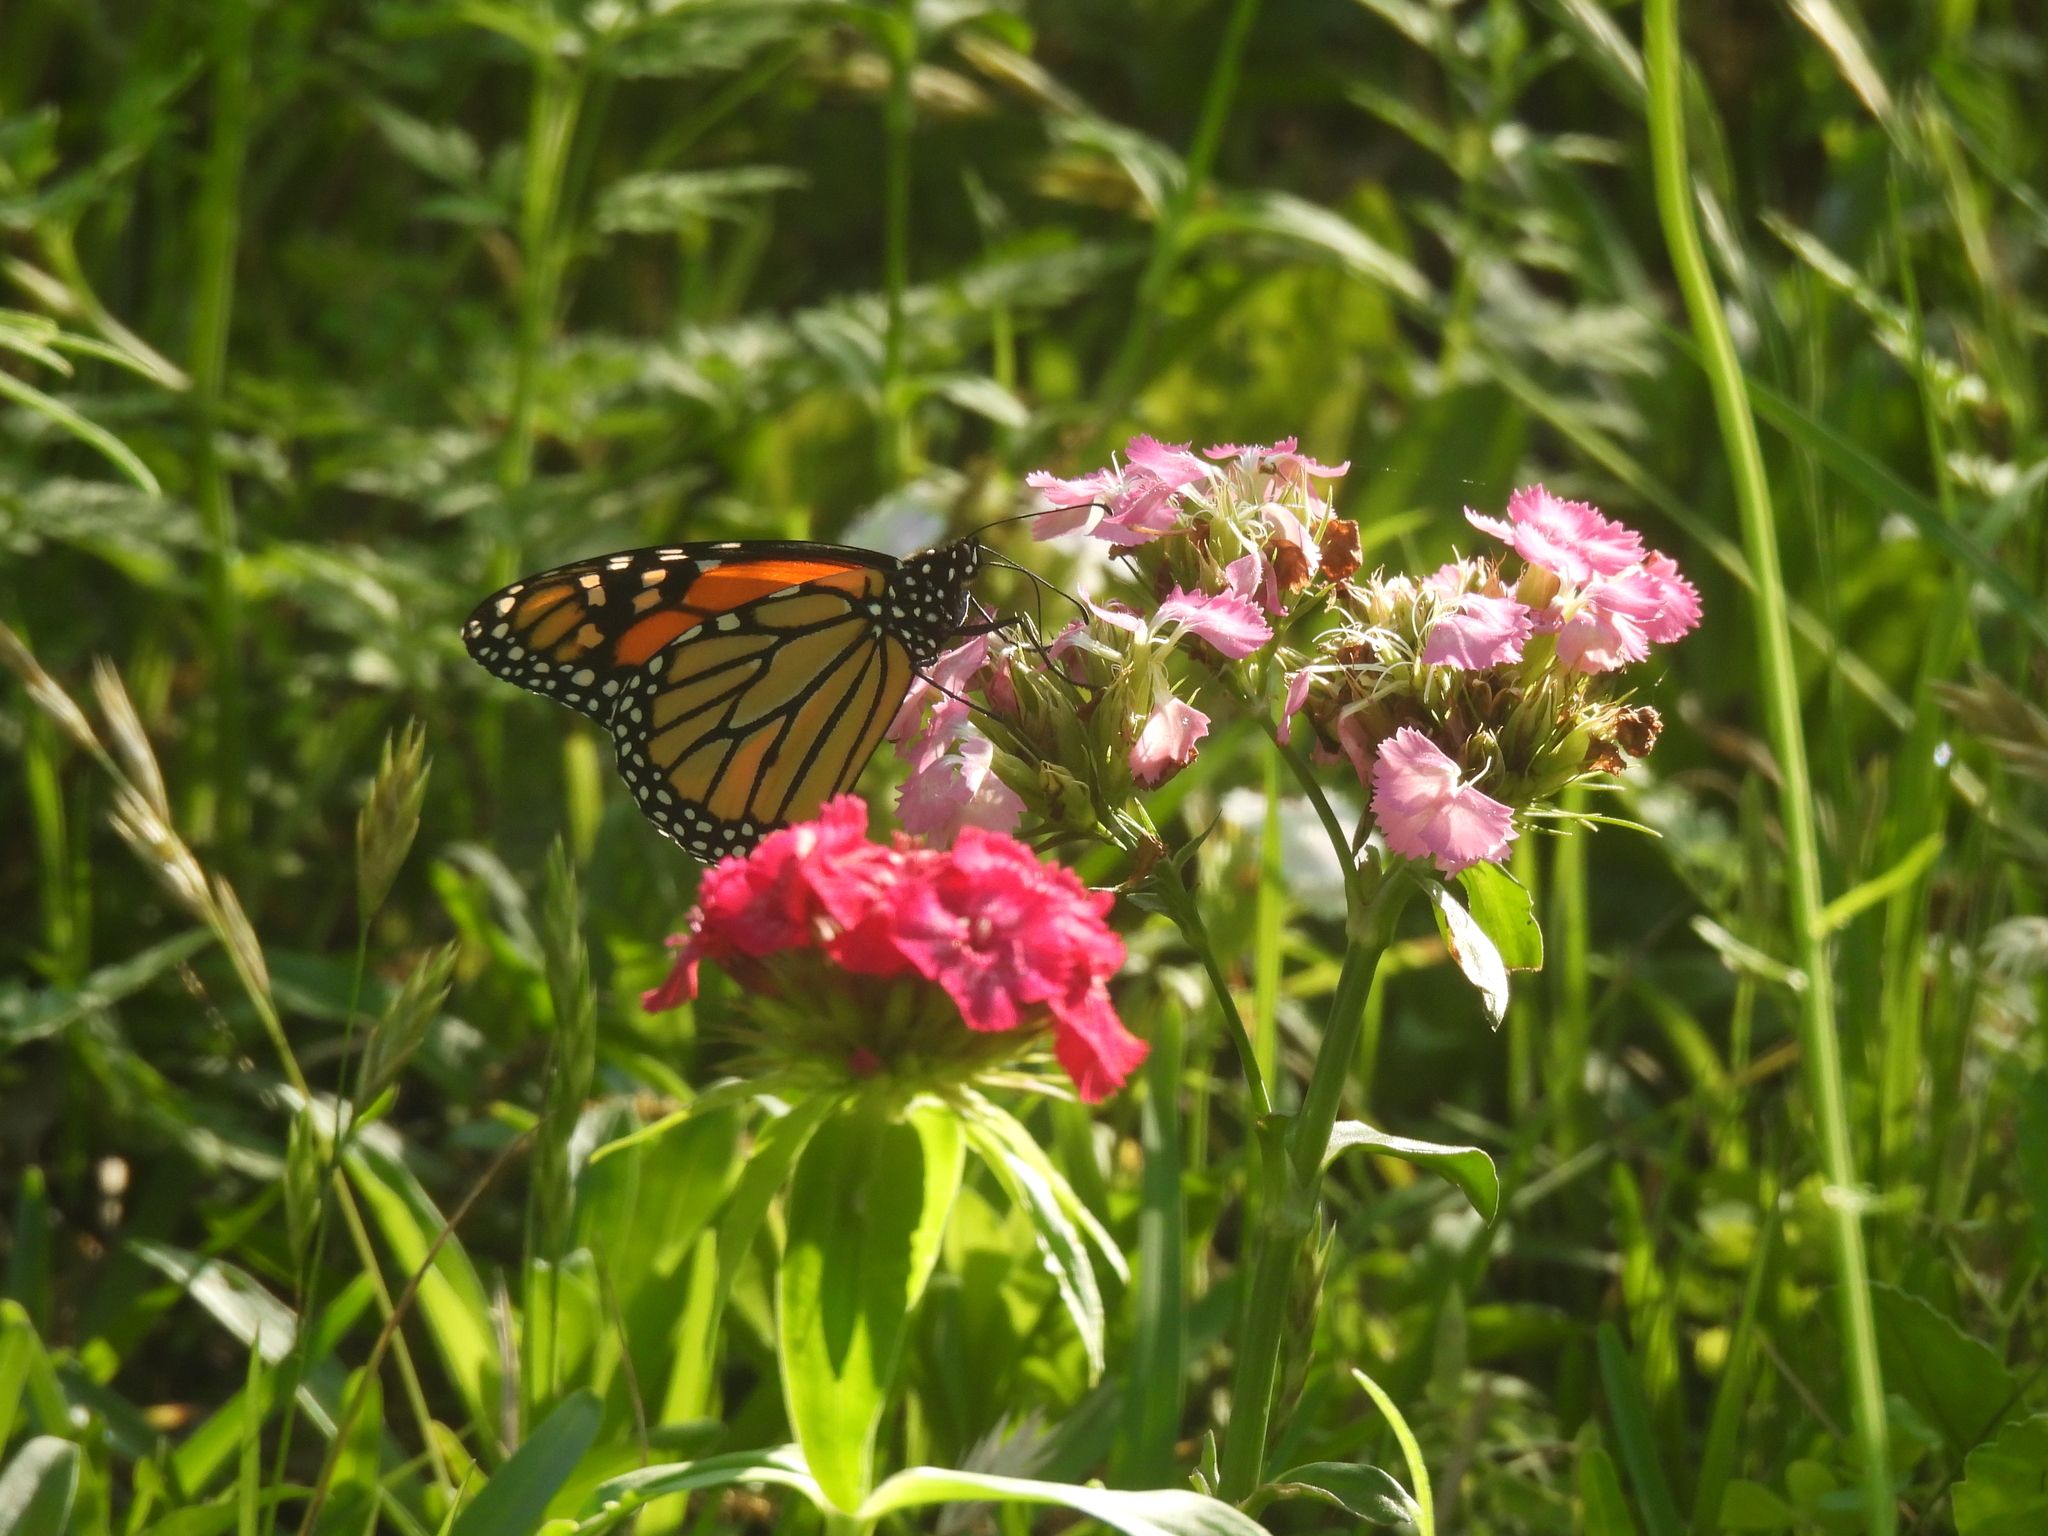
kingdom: Animalia
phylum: Arthropoda
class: Insecta
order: Lepidoptera
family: Nymphalidae
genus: Danaus
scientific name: Danaus plexippus
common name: Monarch
